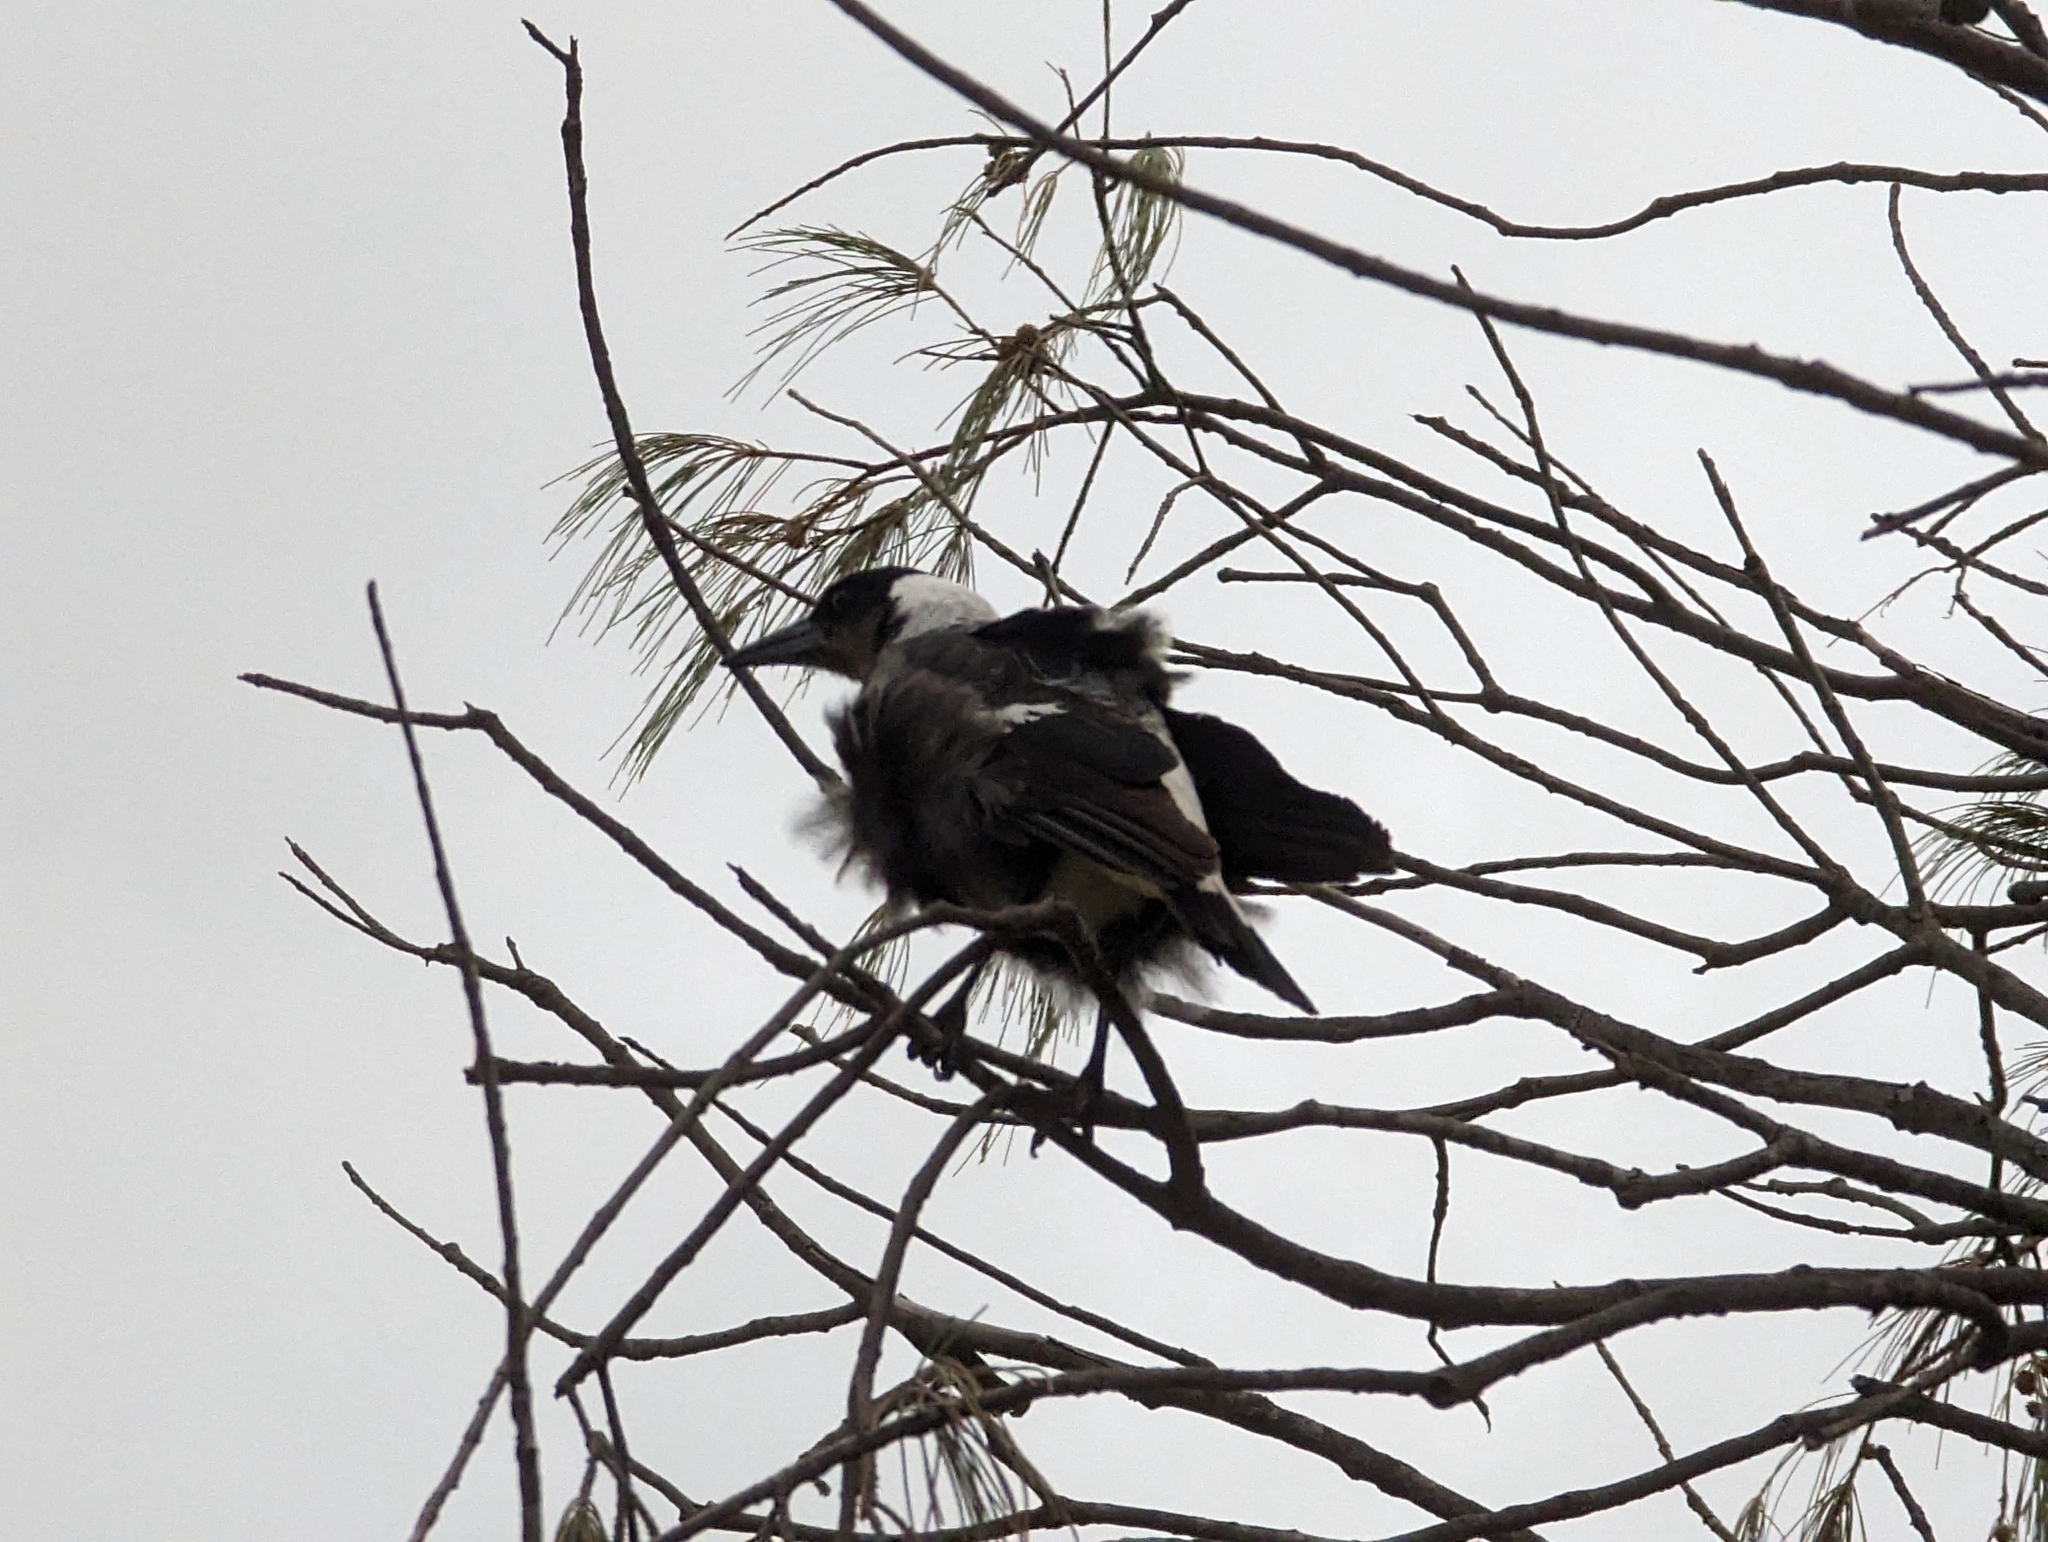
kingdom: Animalia
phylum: Chordata
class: Aves
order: Passeriformes
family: Cracticidae
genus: Gymnorhina
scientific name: Gymnorhina tibicen
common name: Australian magpie
